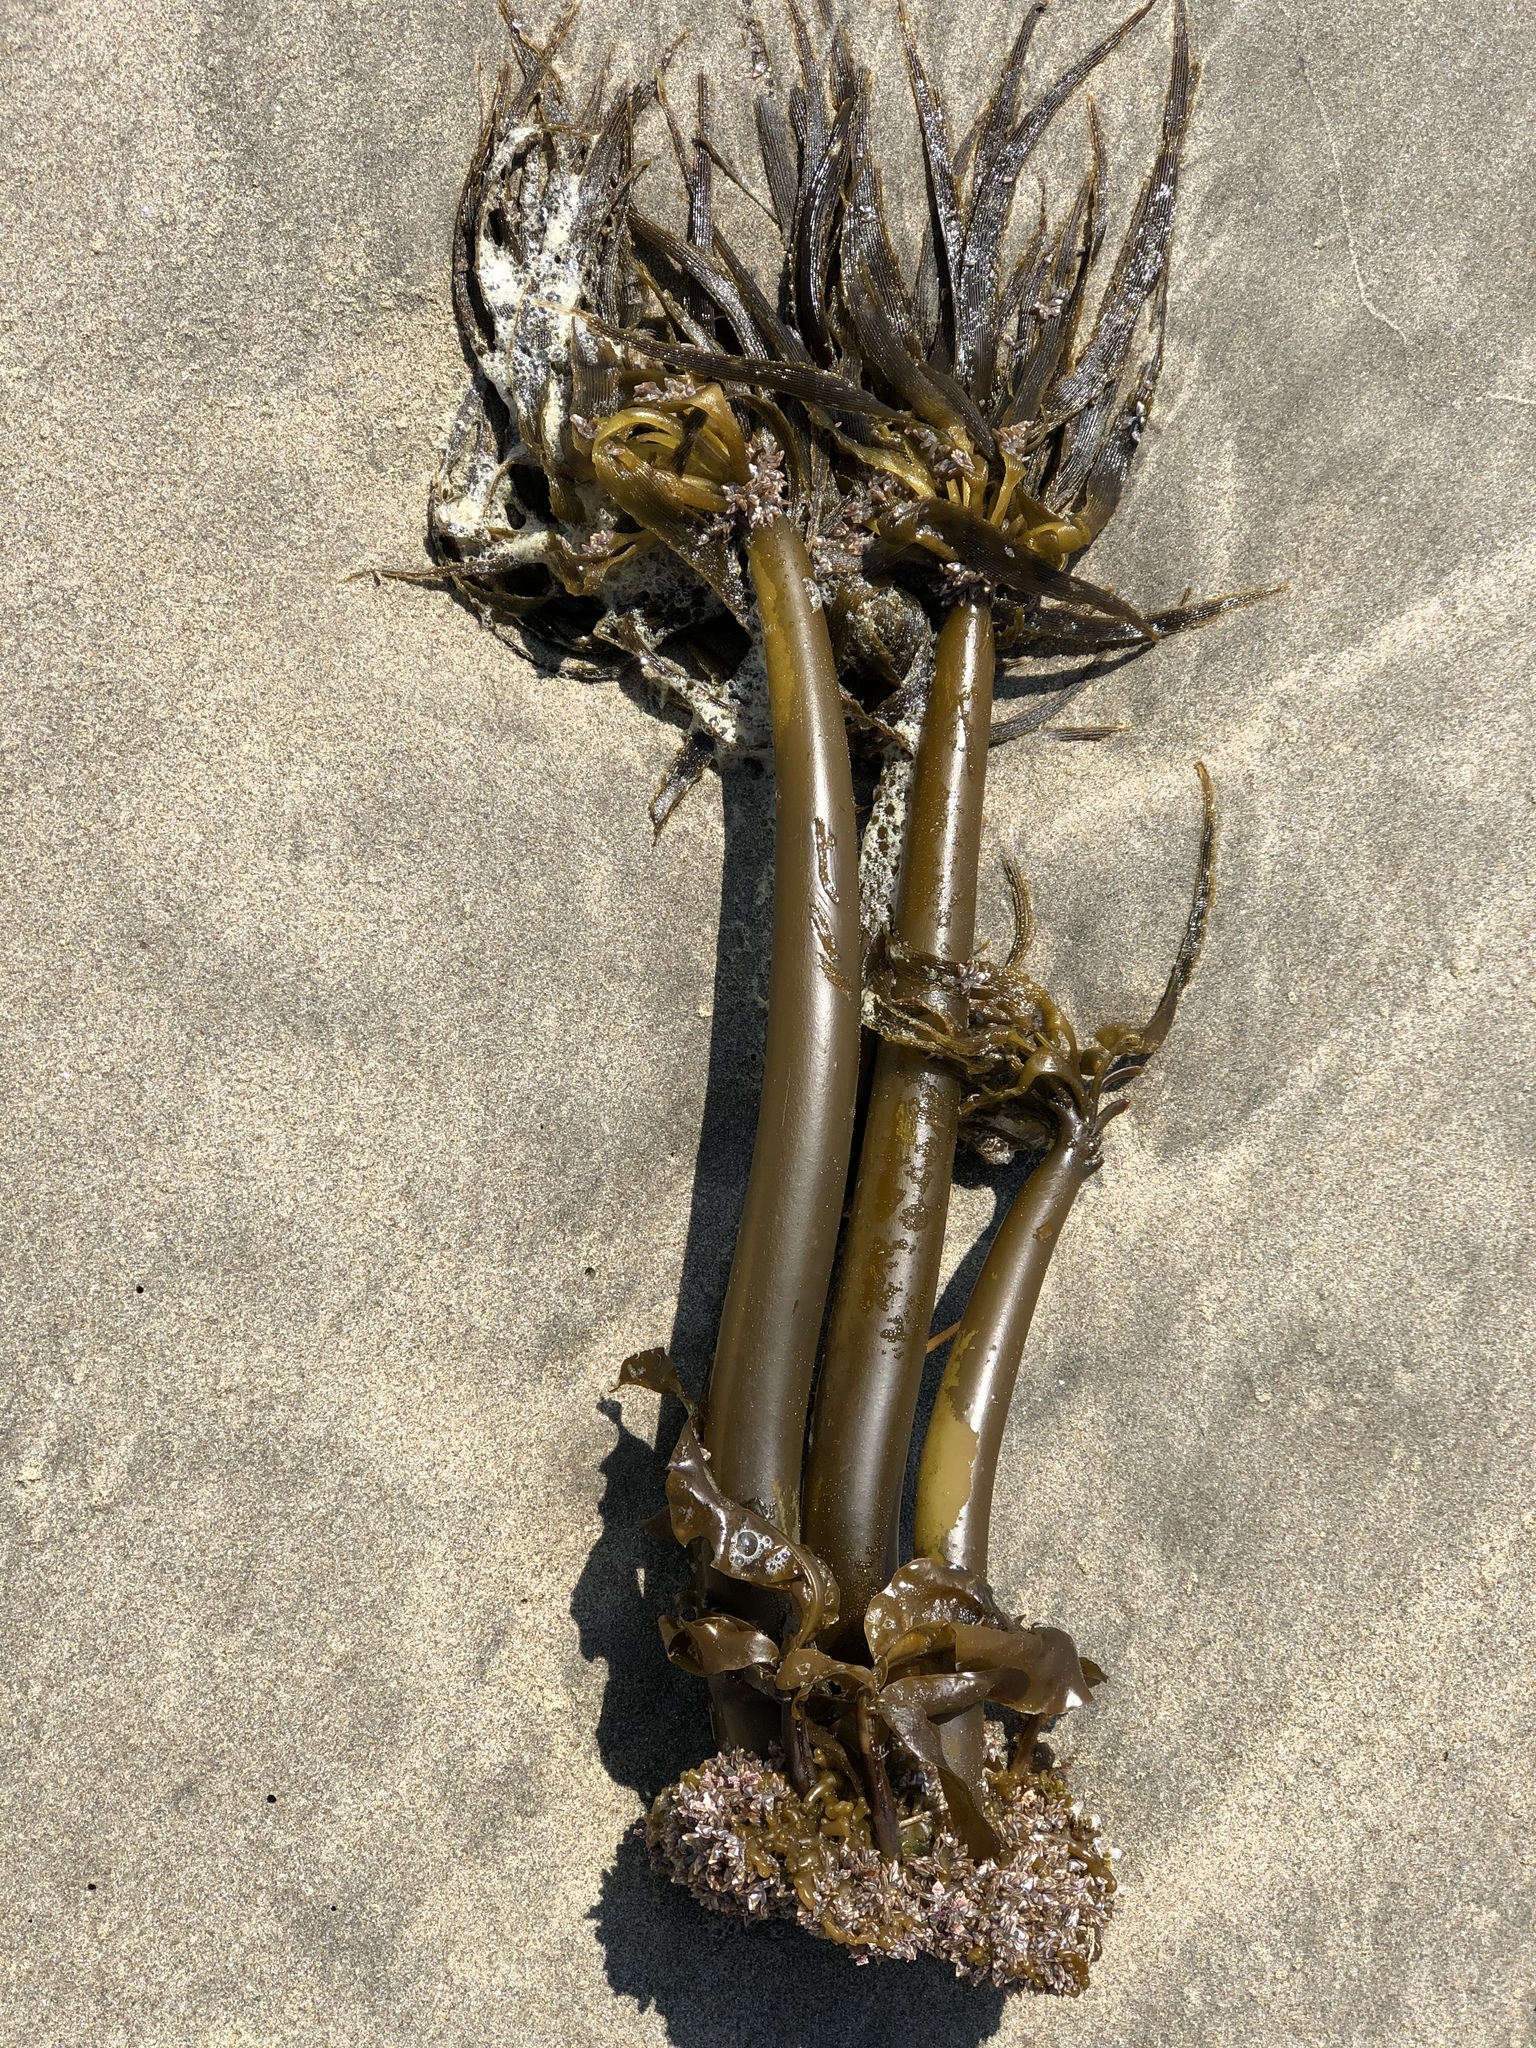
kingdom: Chromista
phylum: Ochrophyta
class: Phaeophyceae
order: Laminariales
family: Laminariaceae
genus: Postelsia
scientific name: Postelsia palmiformis
